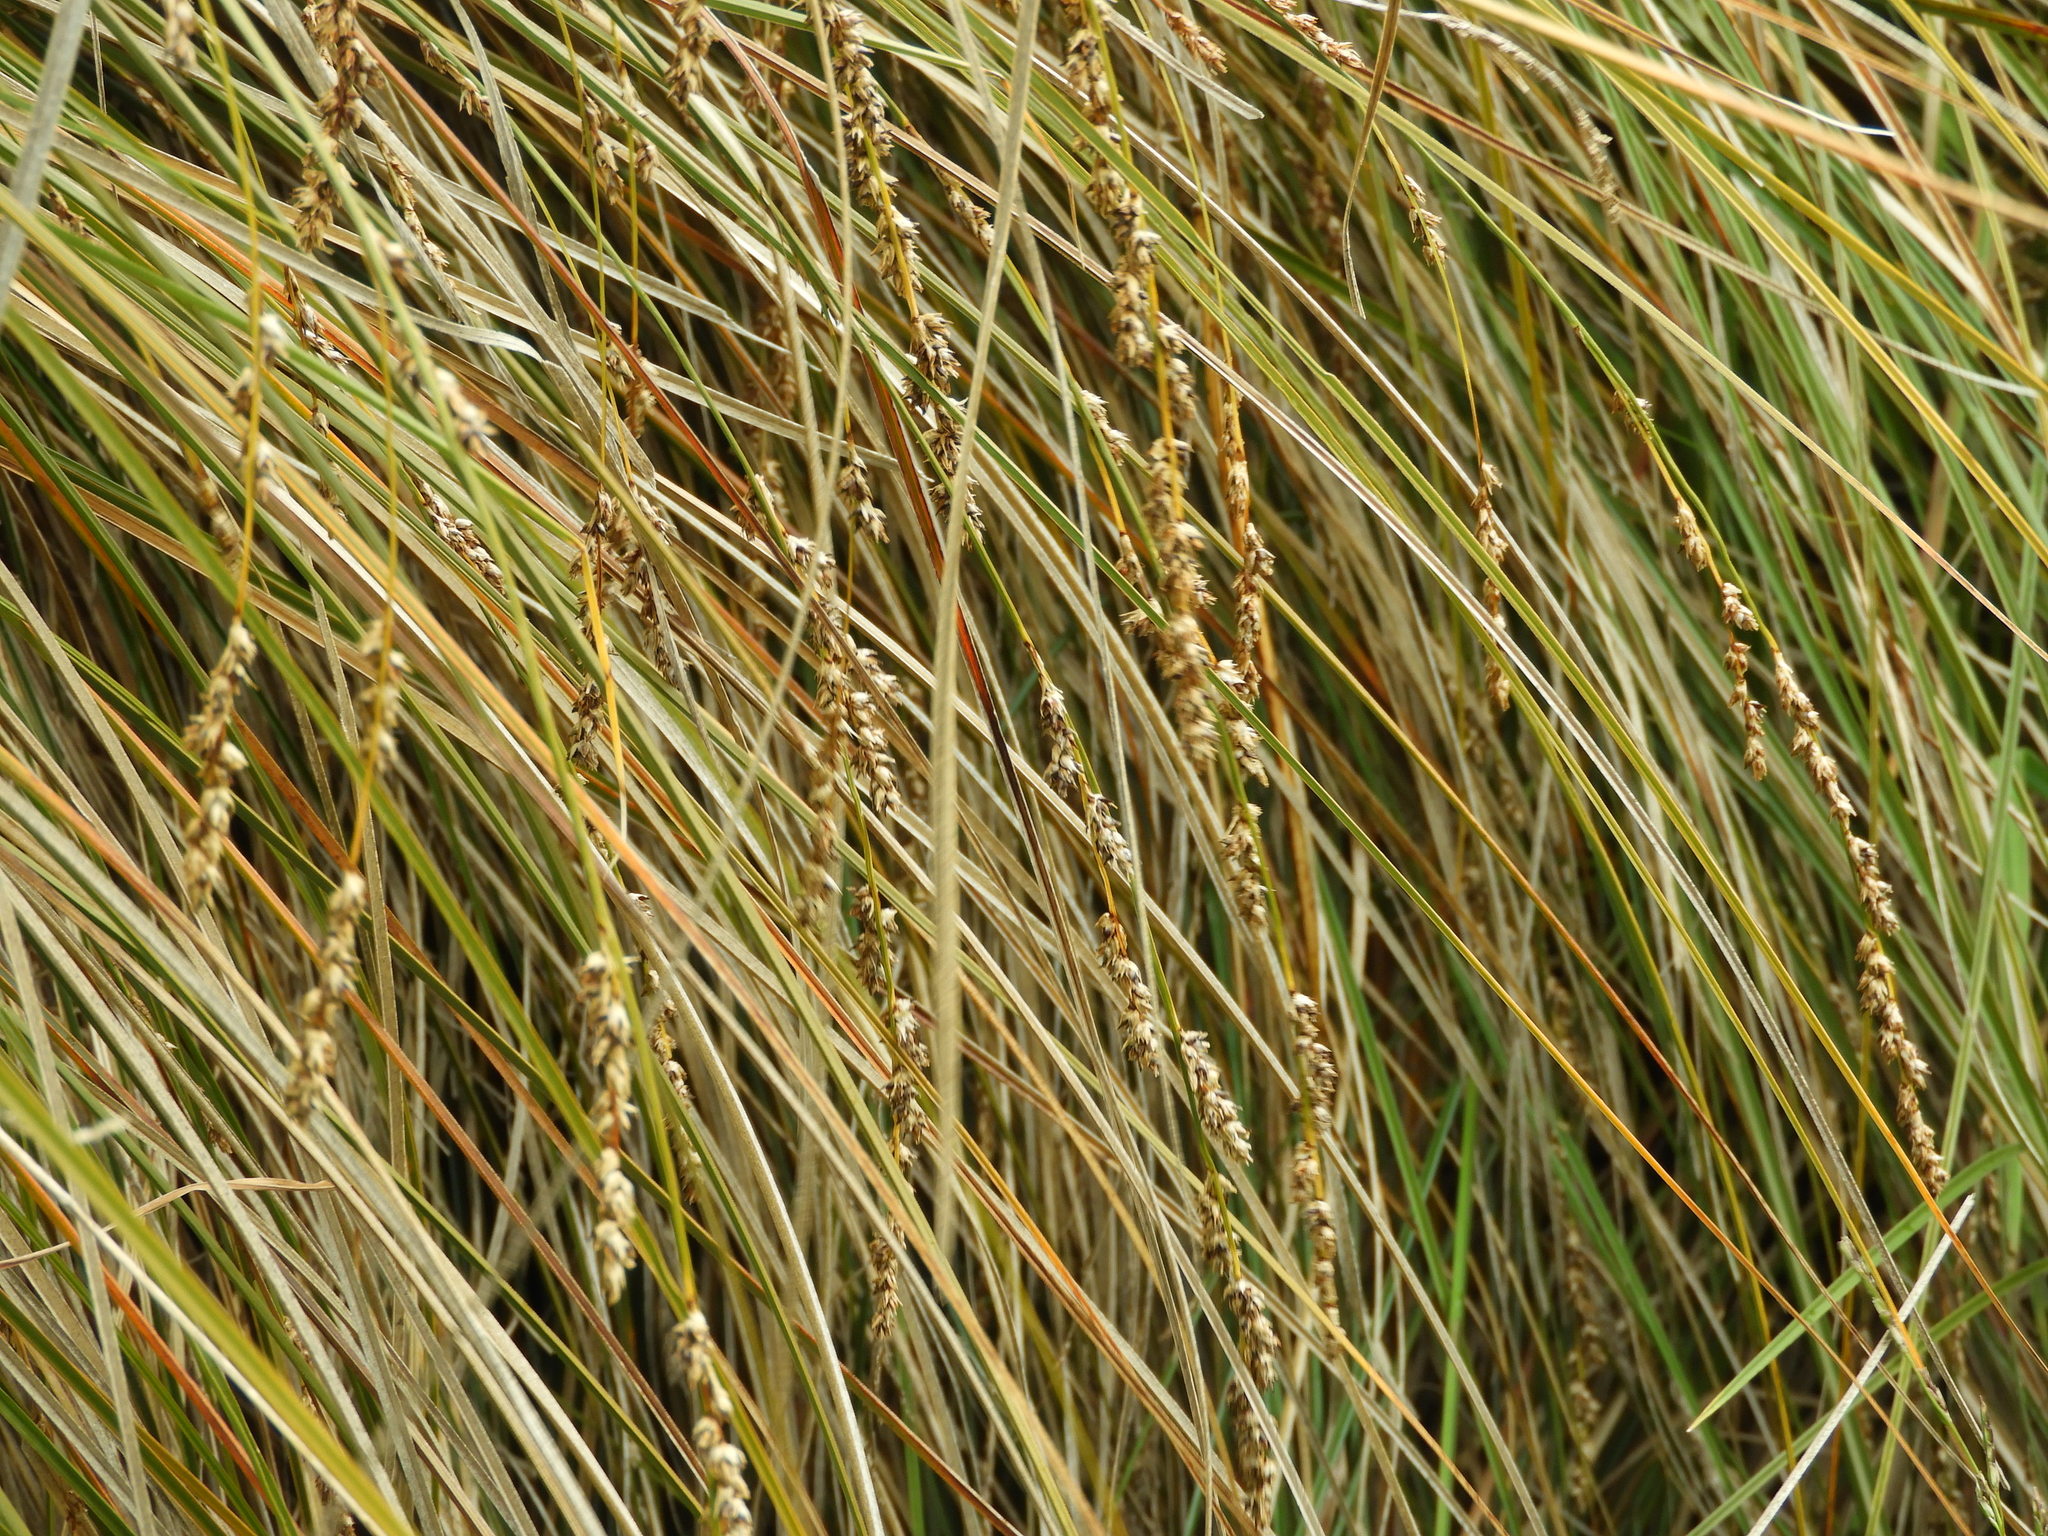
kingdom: Plantae
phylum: Tracheophyta
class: Liliopsida
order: Poales
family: Cyperaceae
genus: Carex
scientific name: Carex secta
